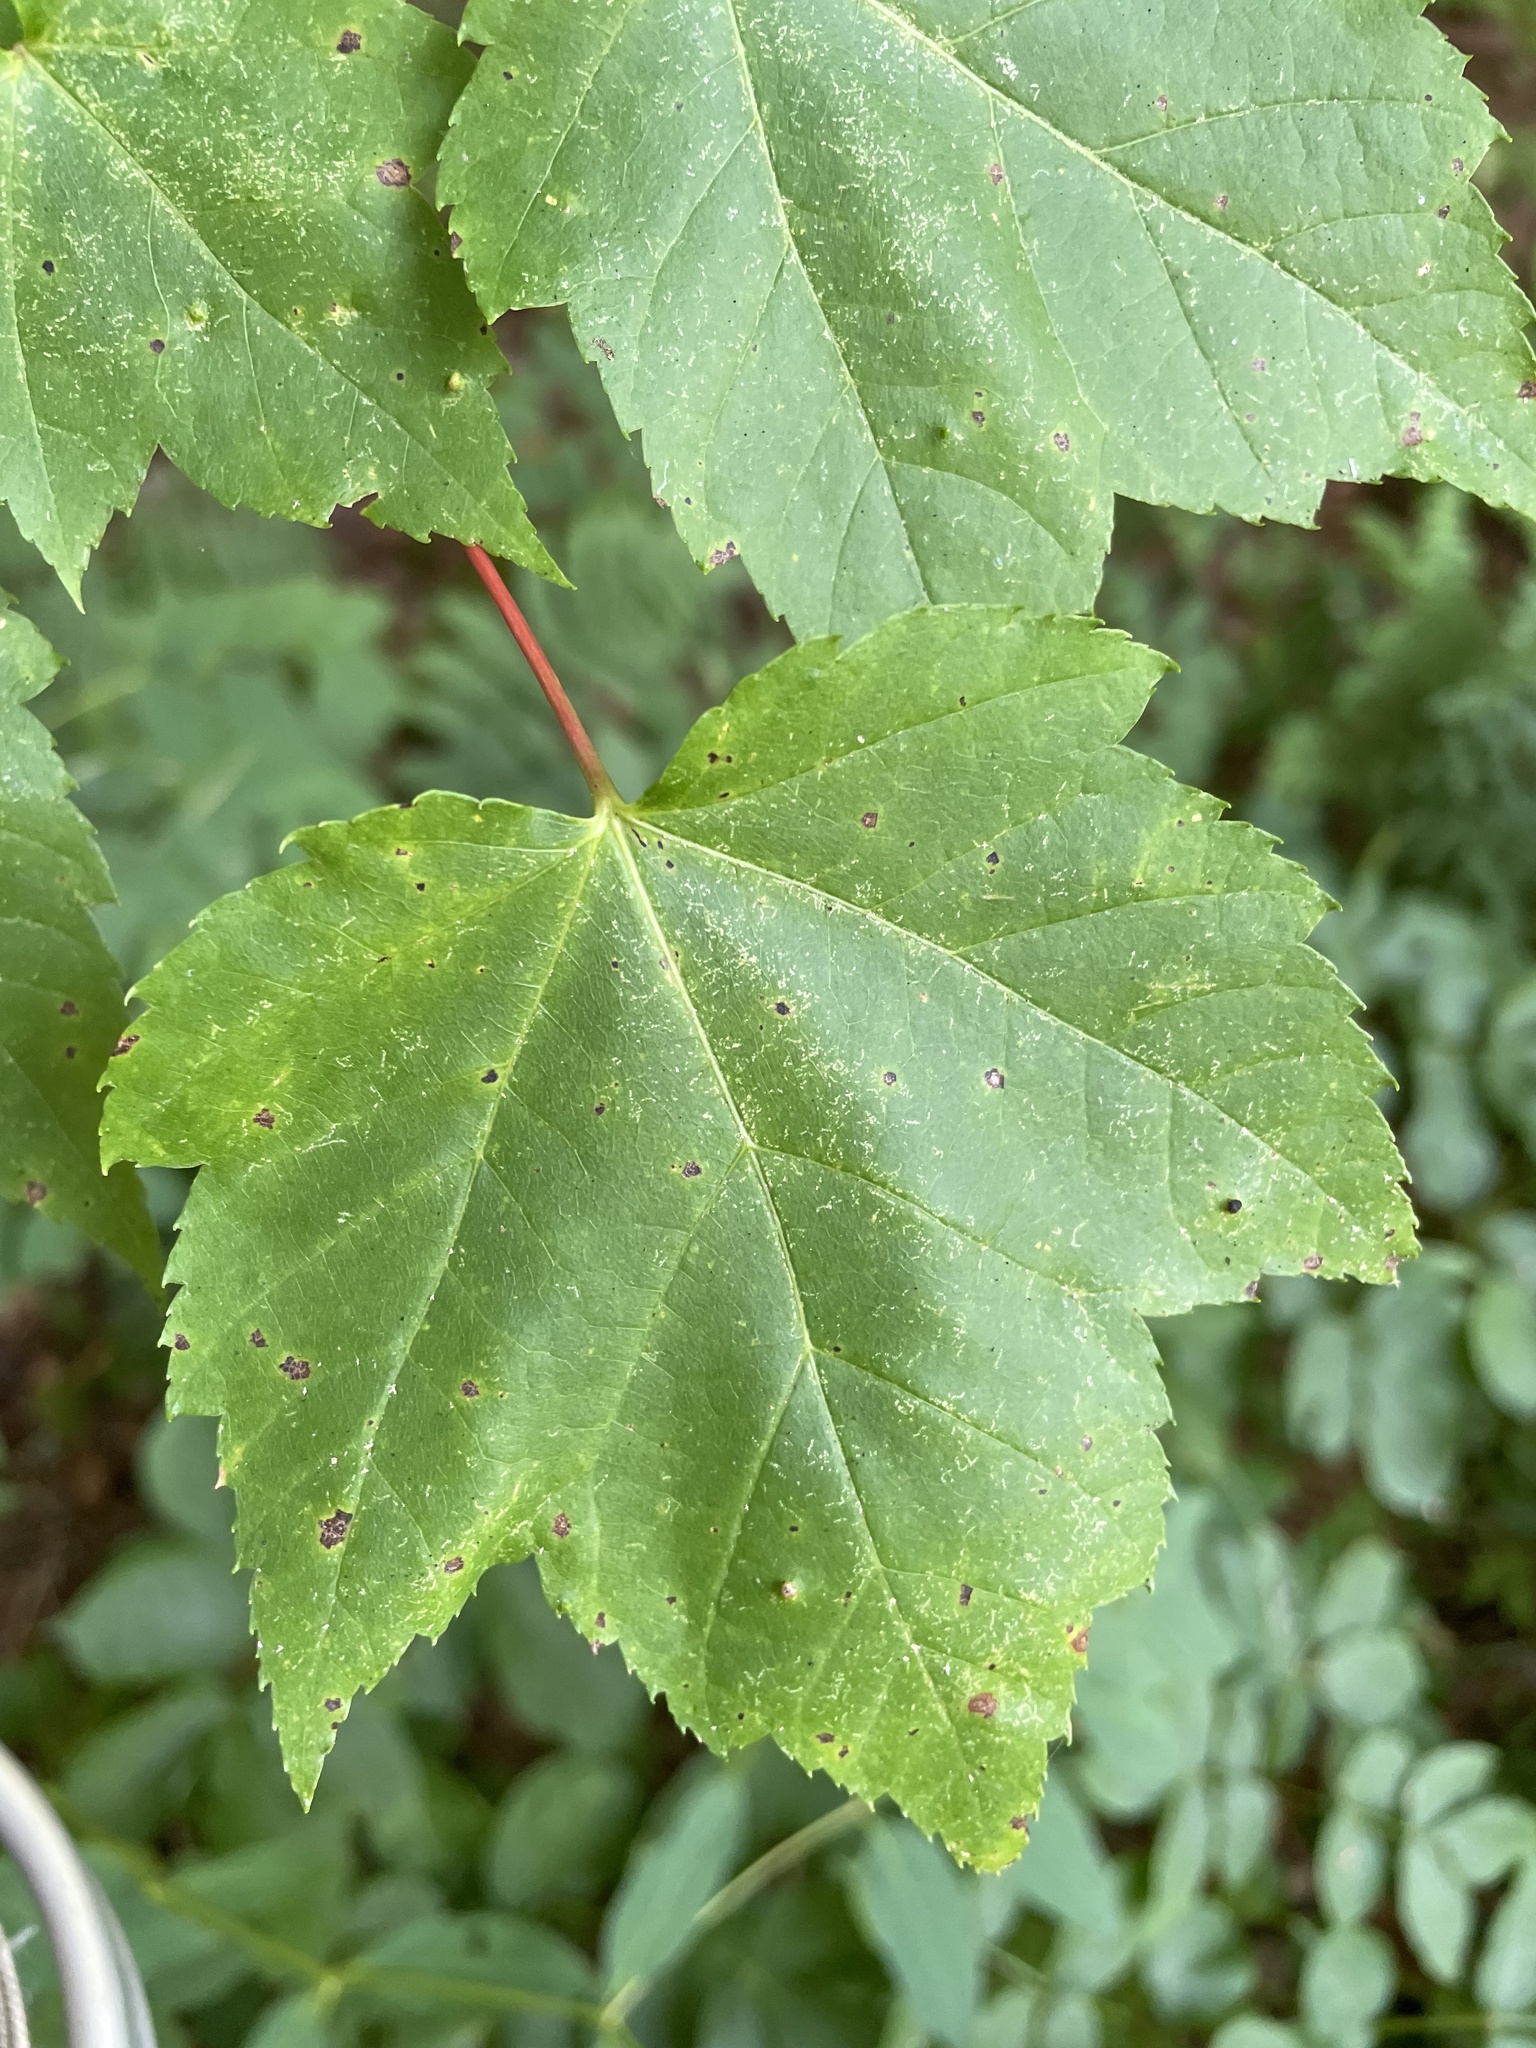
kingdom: Plantae
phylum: Tracheophyta
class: Magnoliopsida
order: Sapindales
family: Sapindaceae
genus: Acer
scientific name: Acer rubrum
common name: Red maple
